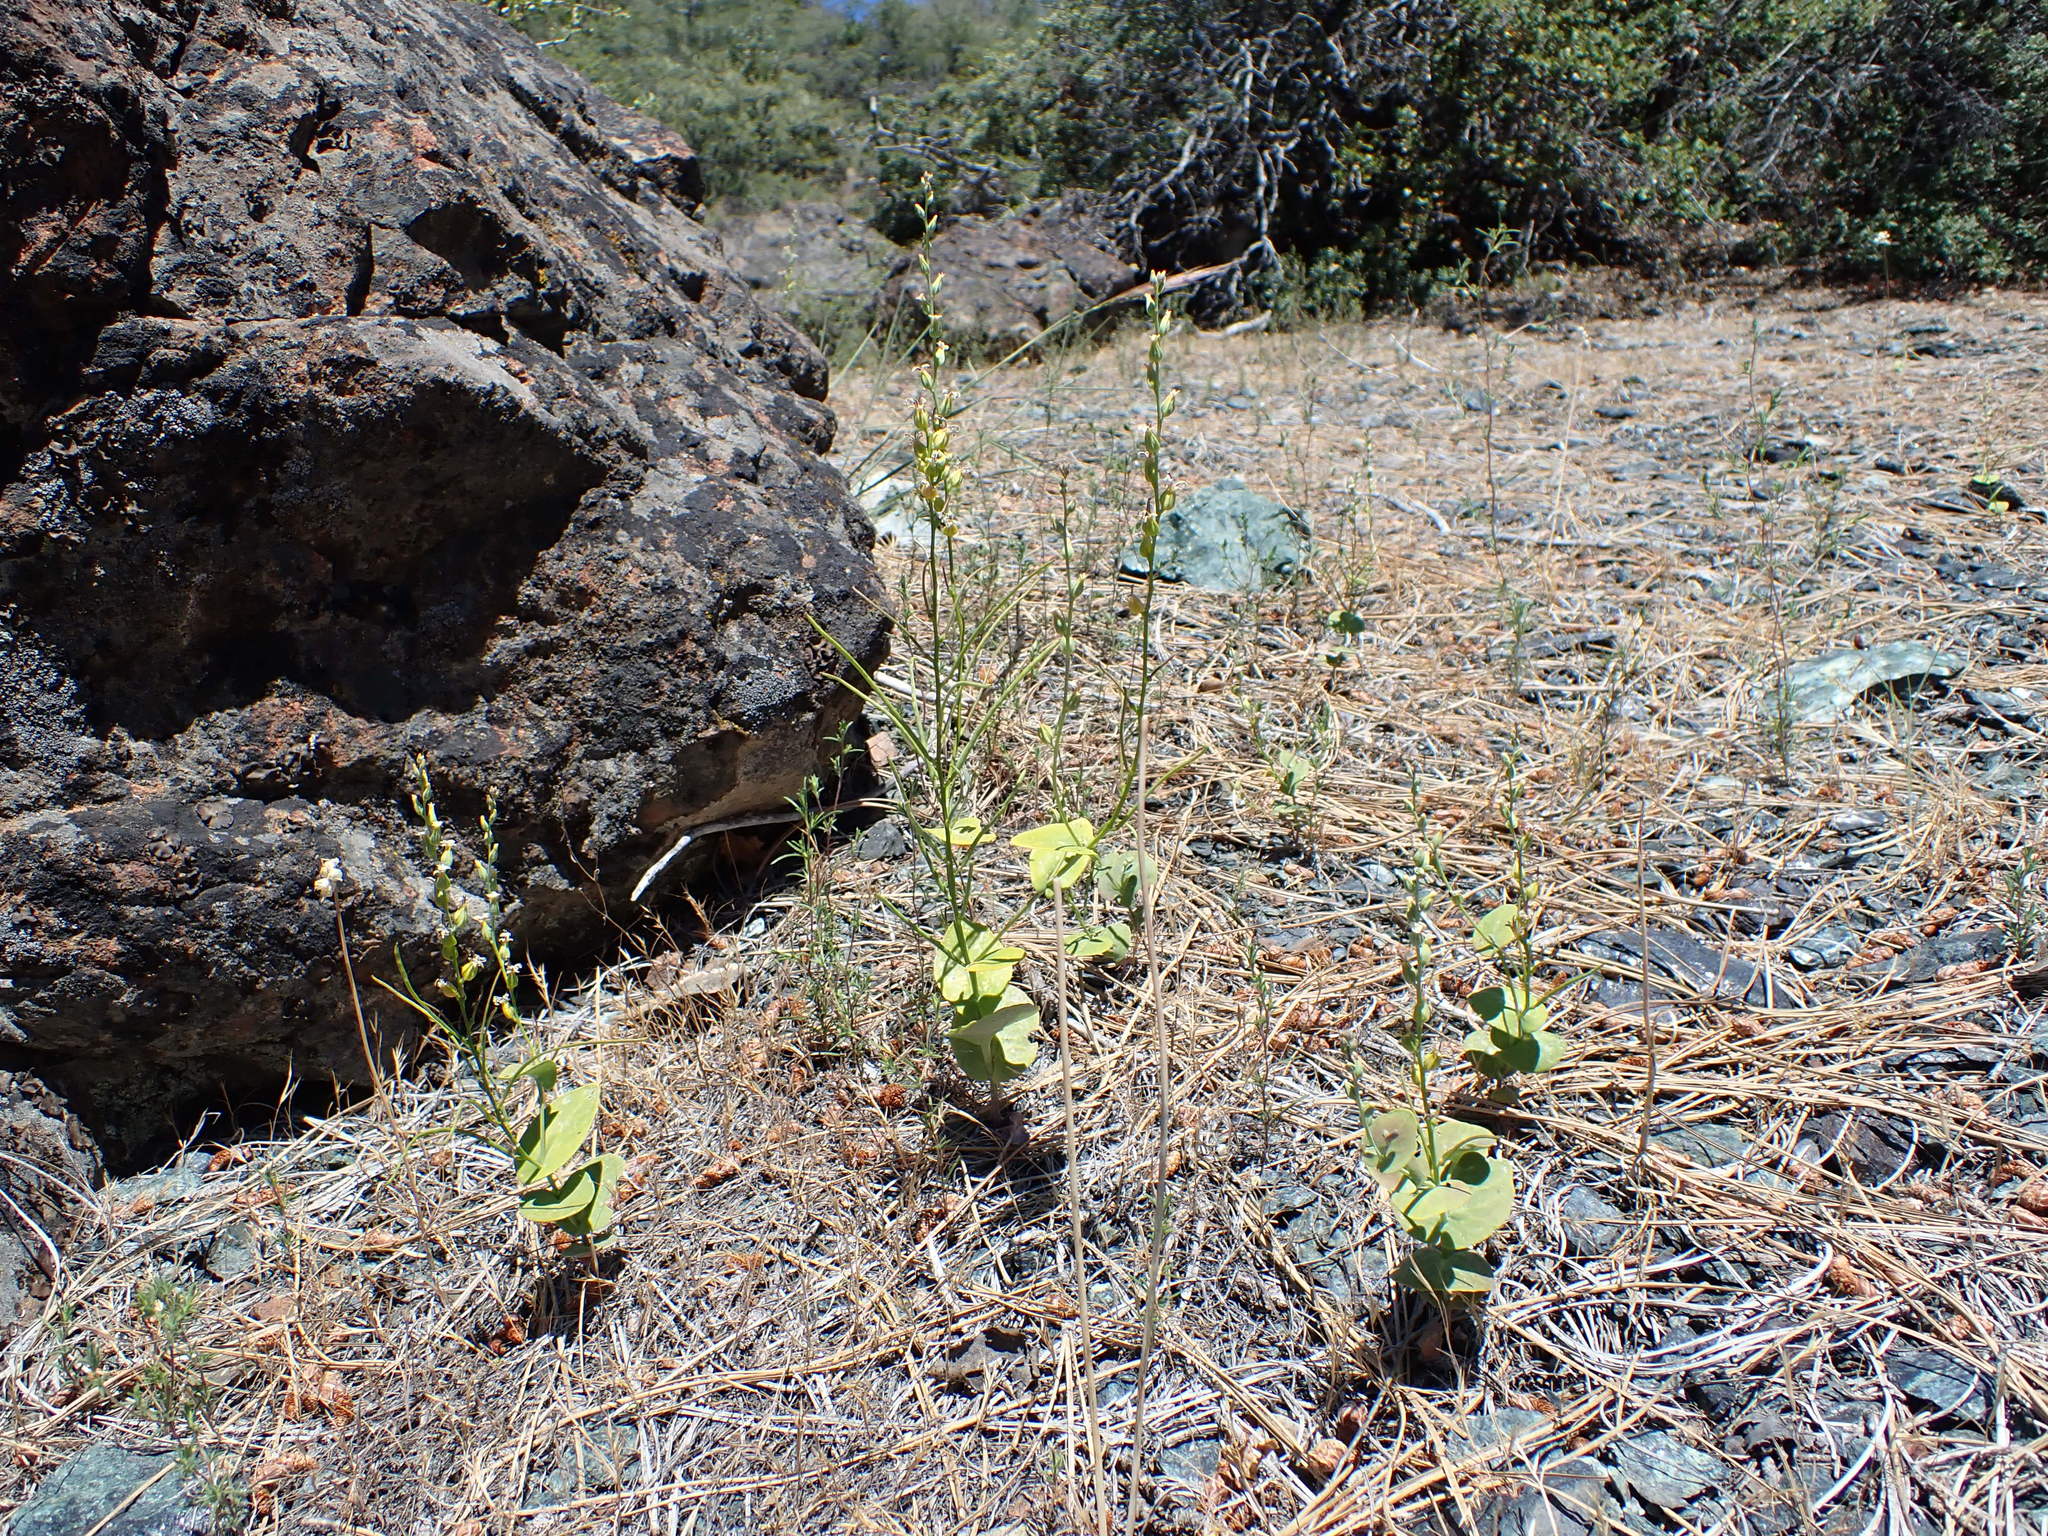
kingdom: Plantae
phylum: Tracheophyta
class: Magnoliopsida
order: Brassicales
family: Brassicaceae
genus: Streptanthus
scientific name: Streptanthus drepanoides
